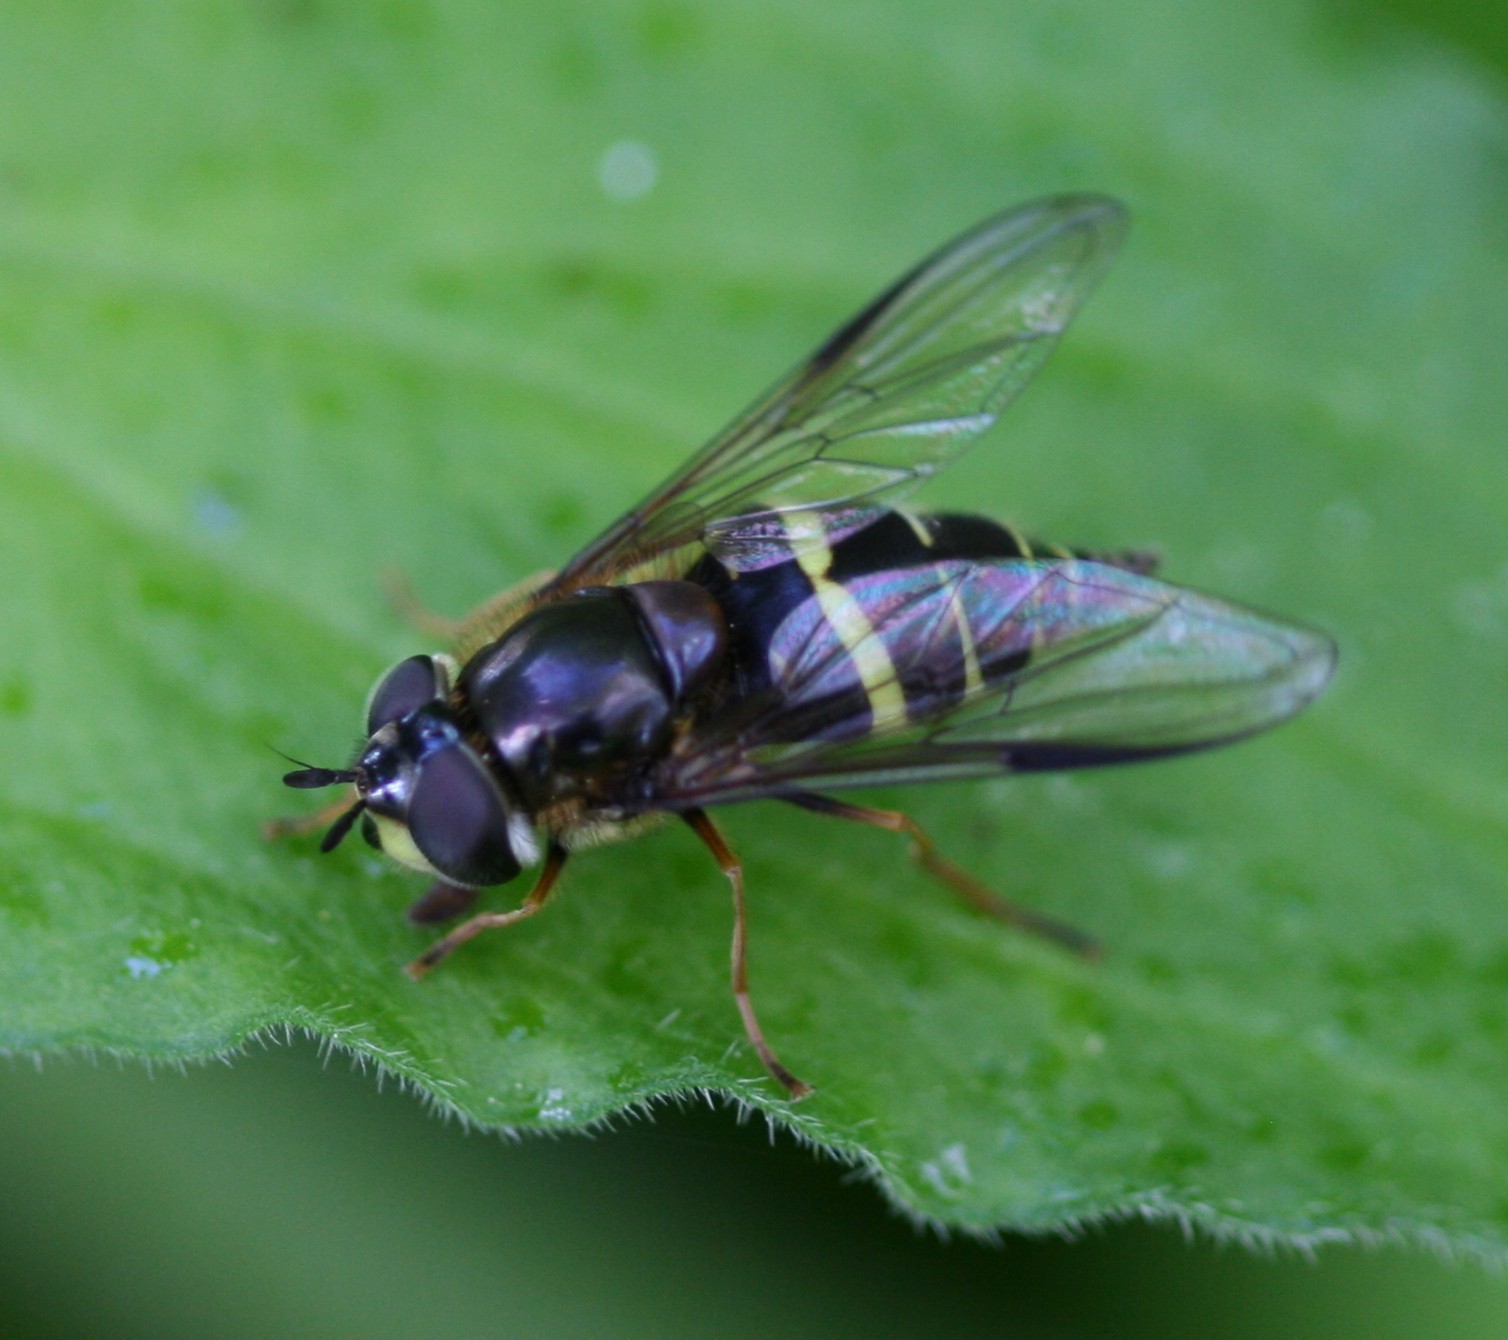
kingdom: Animalia
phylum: Arthropoda
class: Insecta
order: Diptera
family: Syrphidae
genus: Dasysyrphus
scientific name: Dasysyrphus tricinctus
